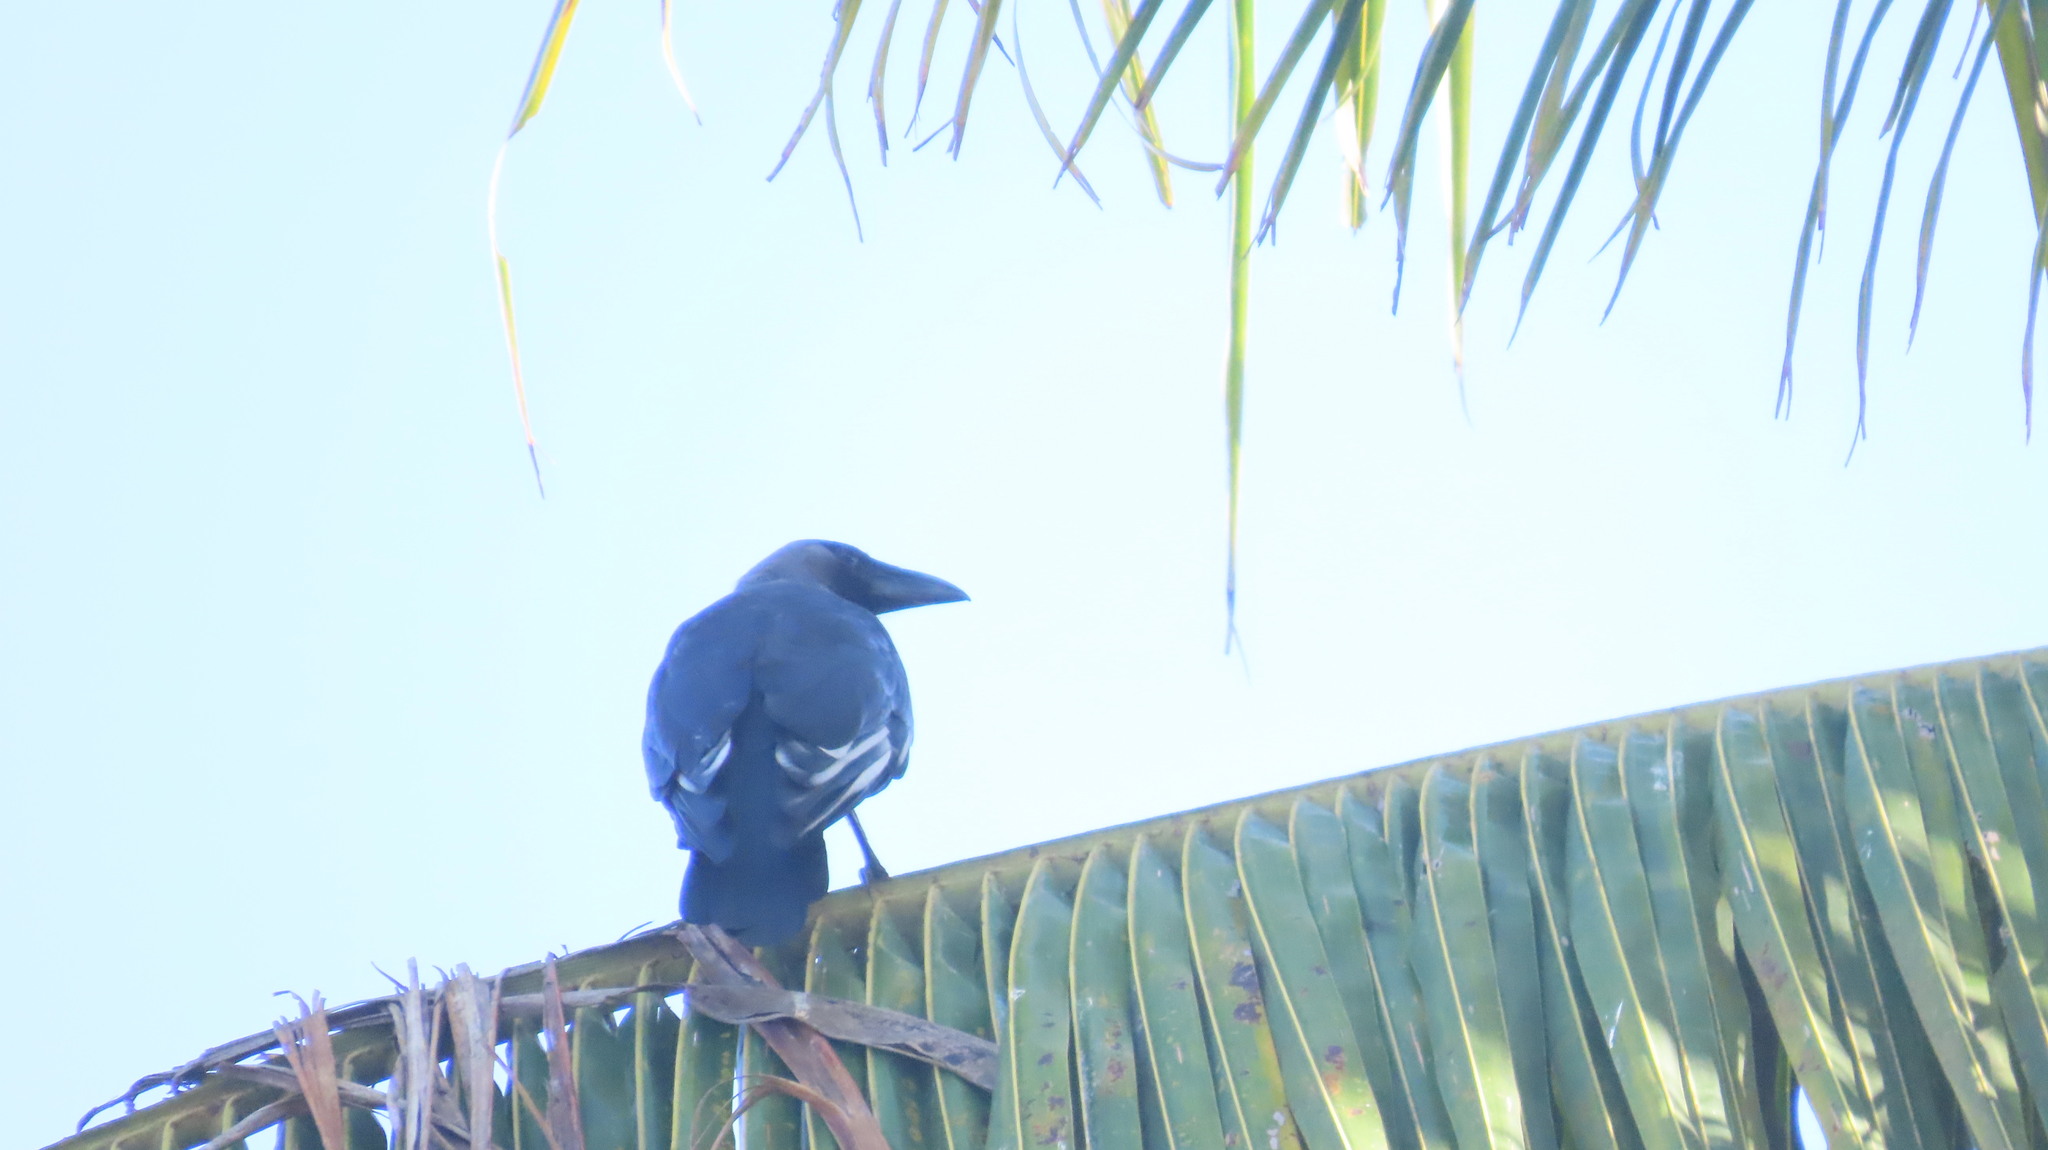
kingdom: Animalia
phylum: Chordata
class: Aves
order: Passeriformes
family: Corvidae
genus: Corvus
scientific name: Corvus splendens
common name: House crow
